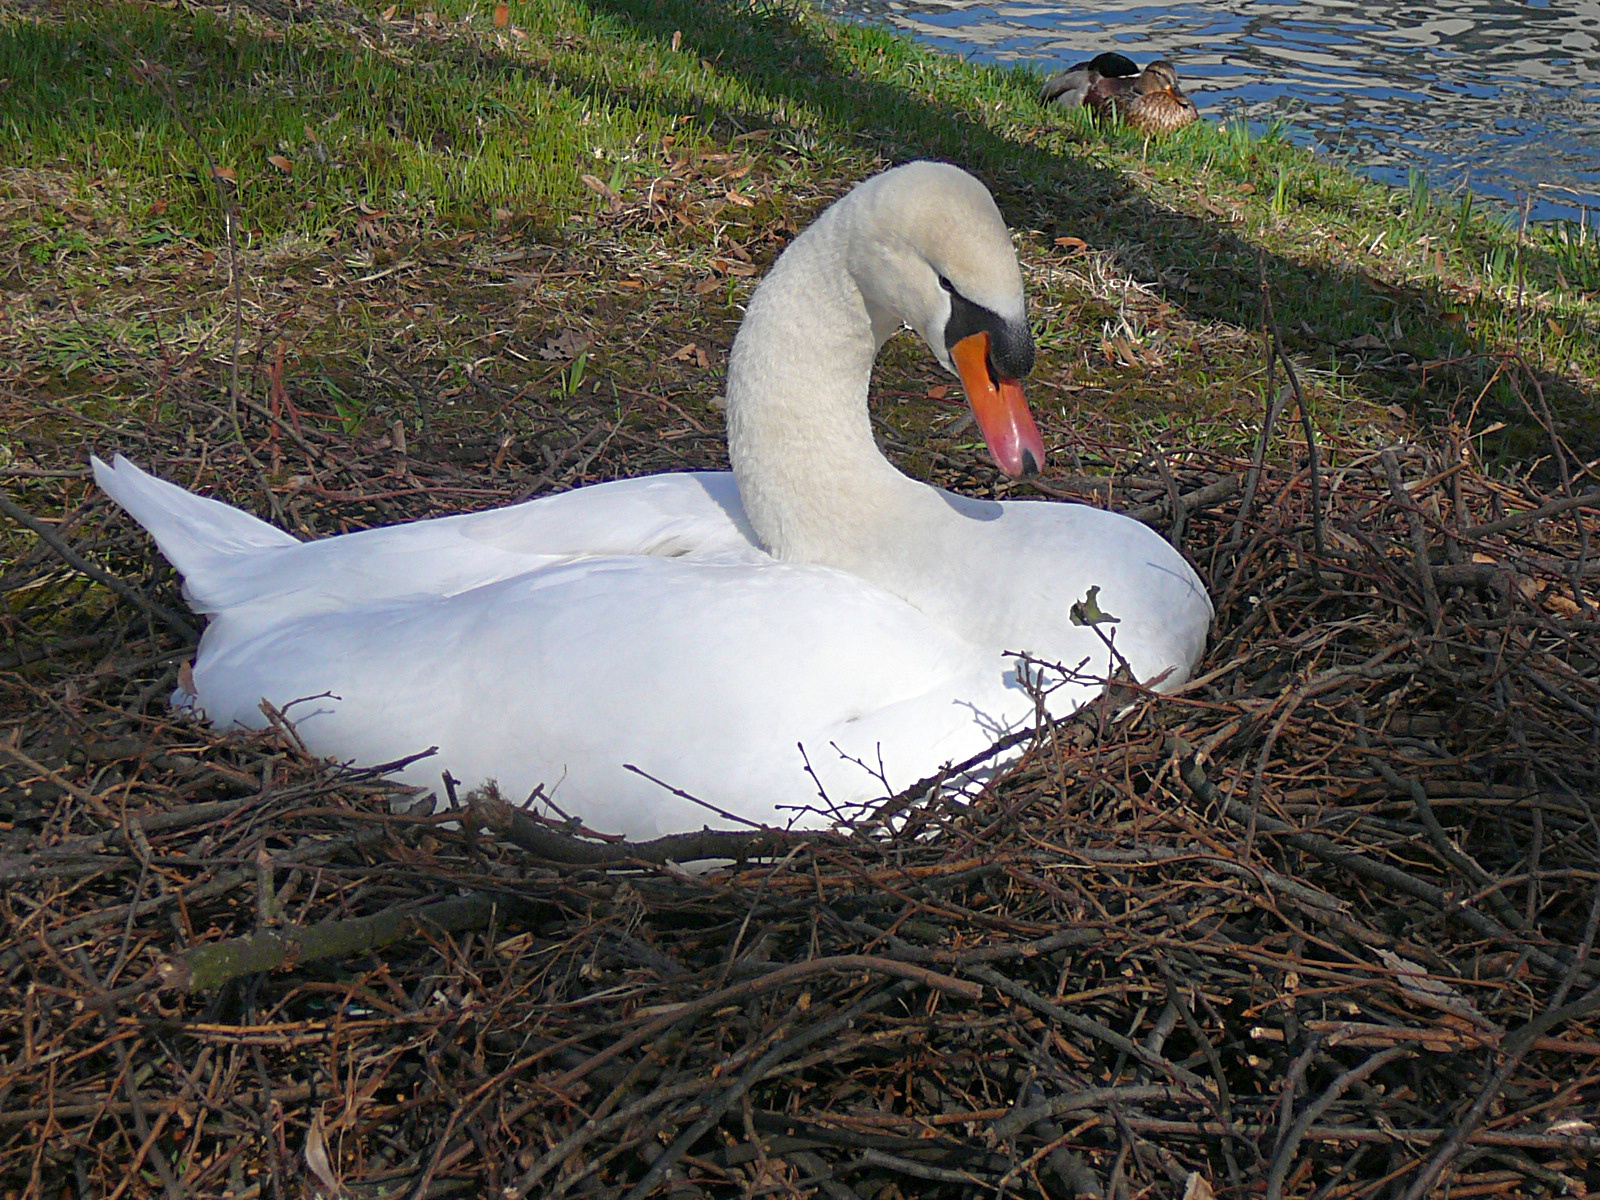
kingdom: Animalia
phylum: Chordata
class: Aves
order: Anseriformes
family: Anatidae
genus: Cygnus
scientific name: Cygnus olor
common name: Mute swan
